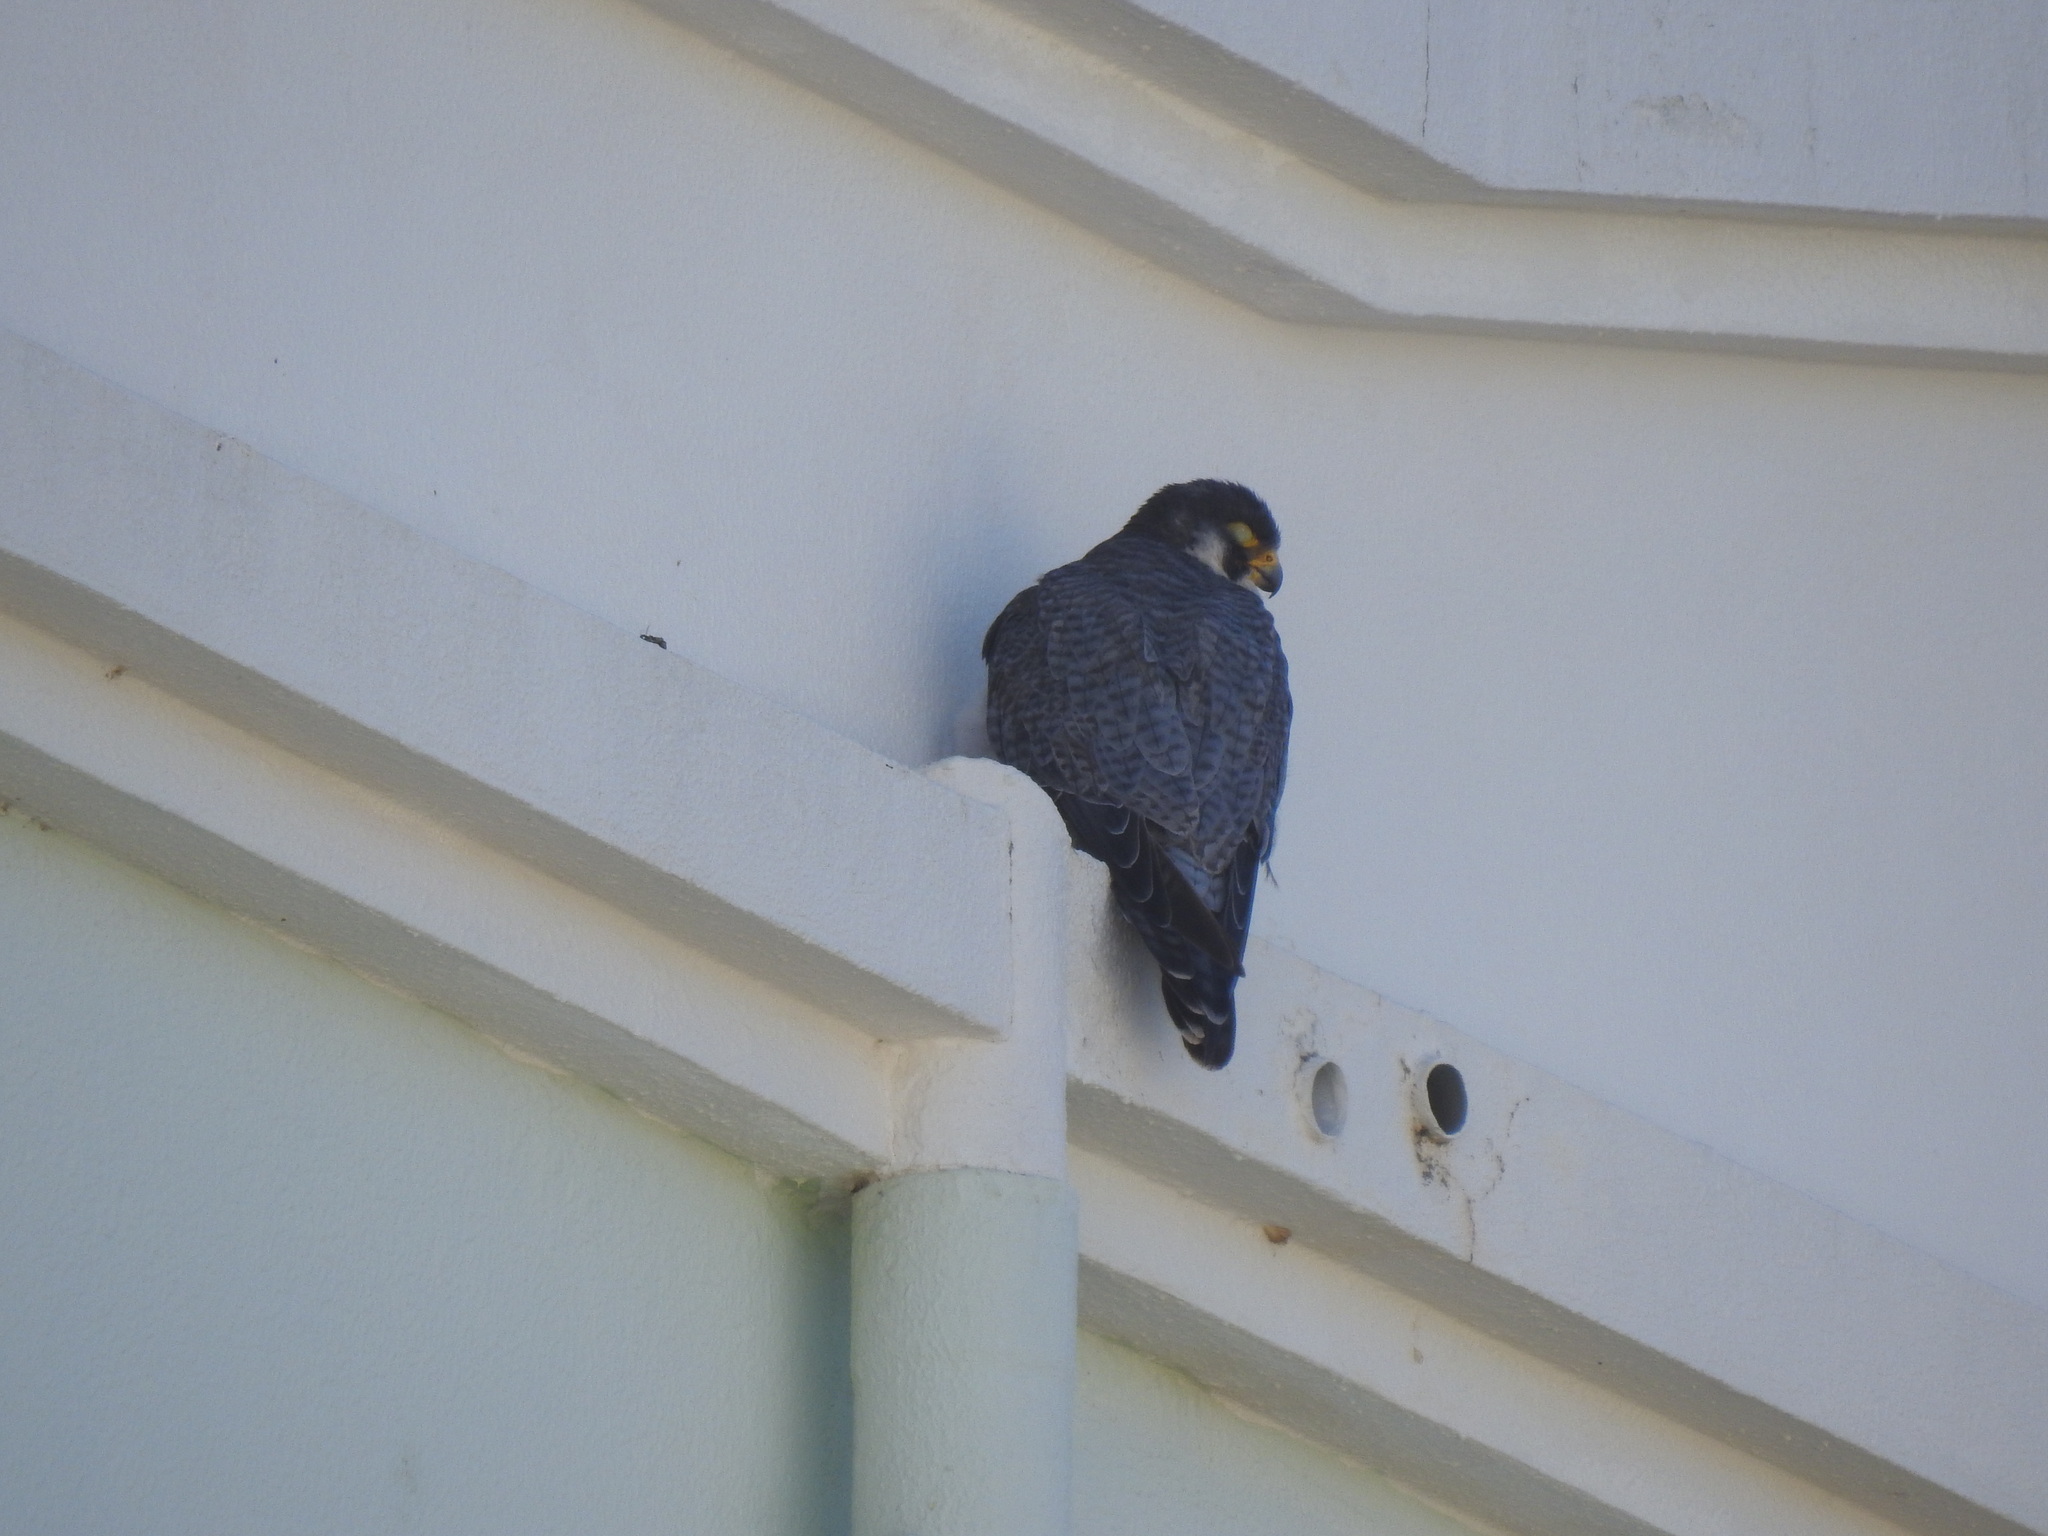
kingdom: Animalia
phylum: Chordata
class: Aves
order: Falconiformes
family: Falconidae
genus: Falco
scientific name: Falco peregrinus
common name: Peregrine falcon
